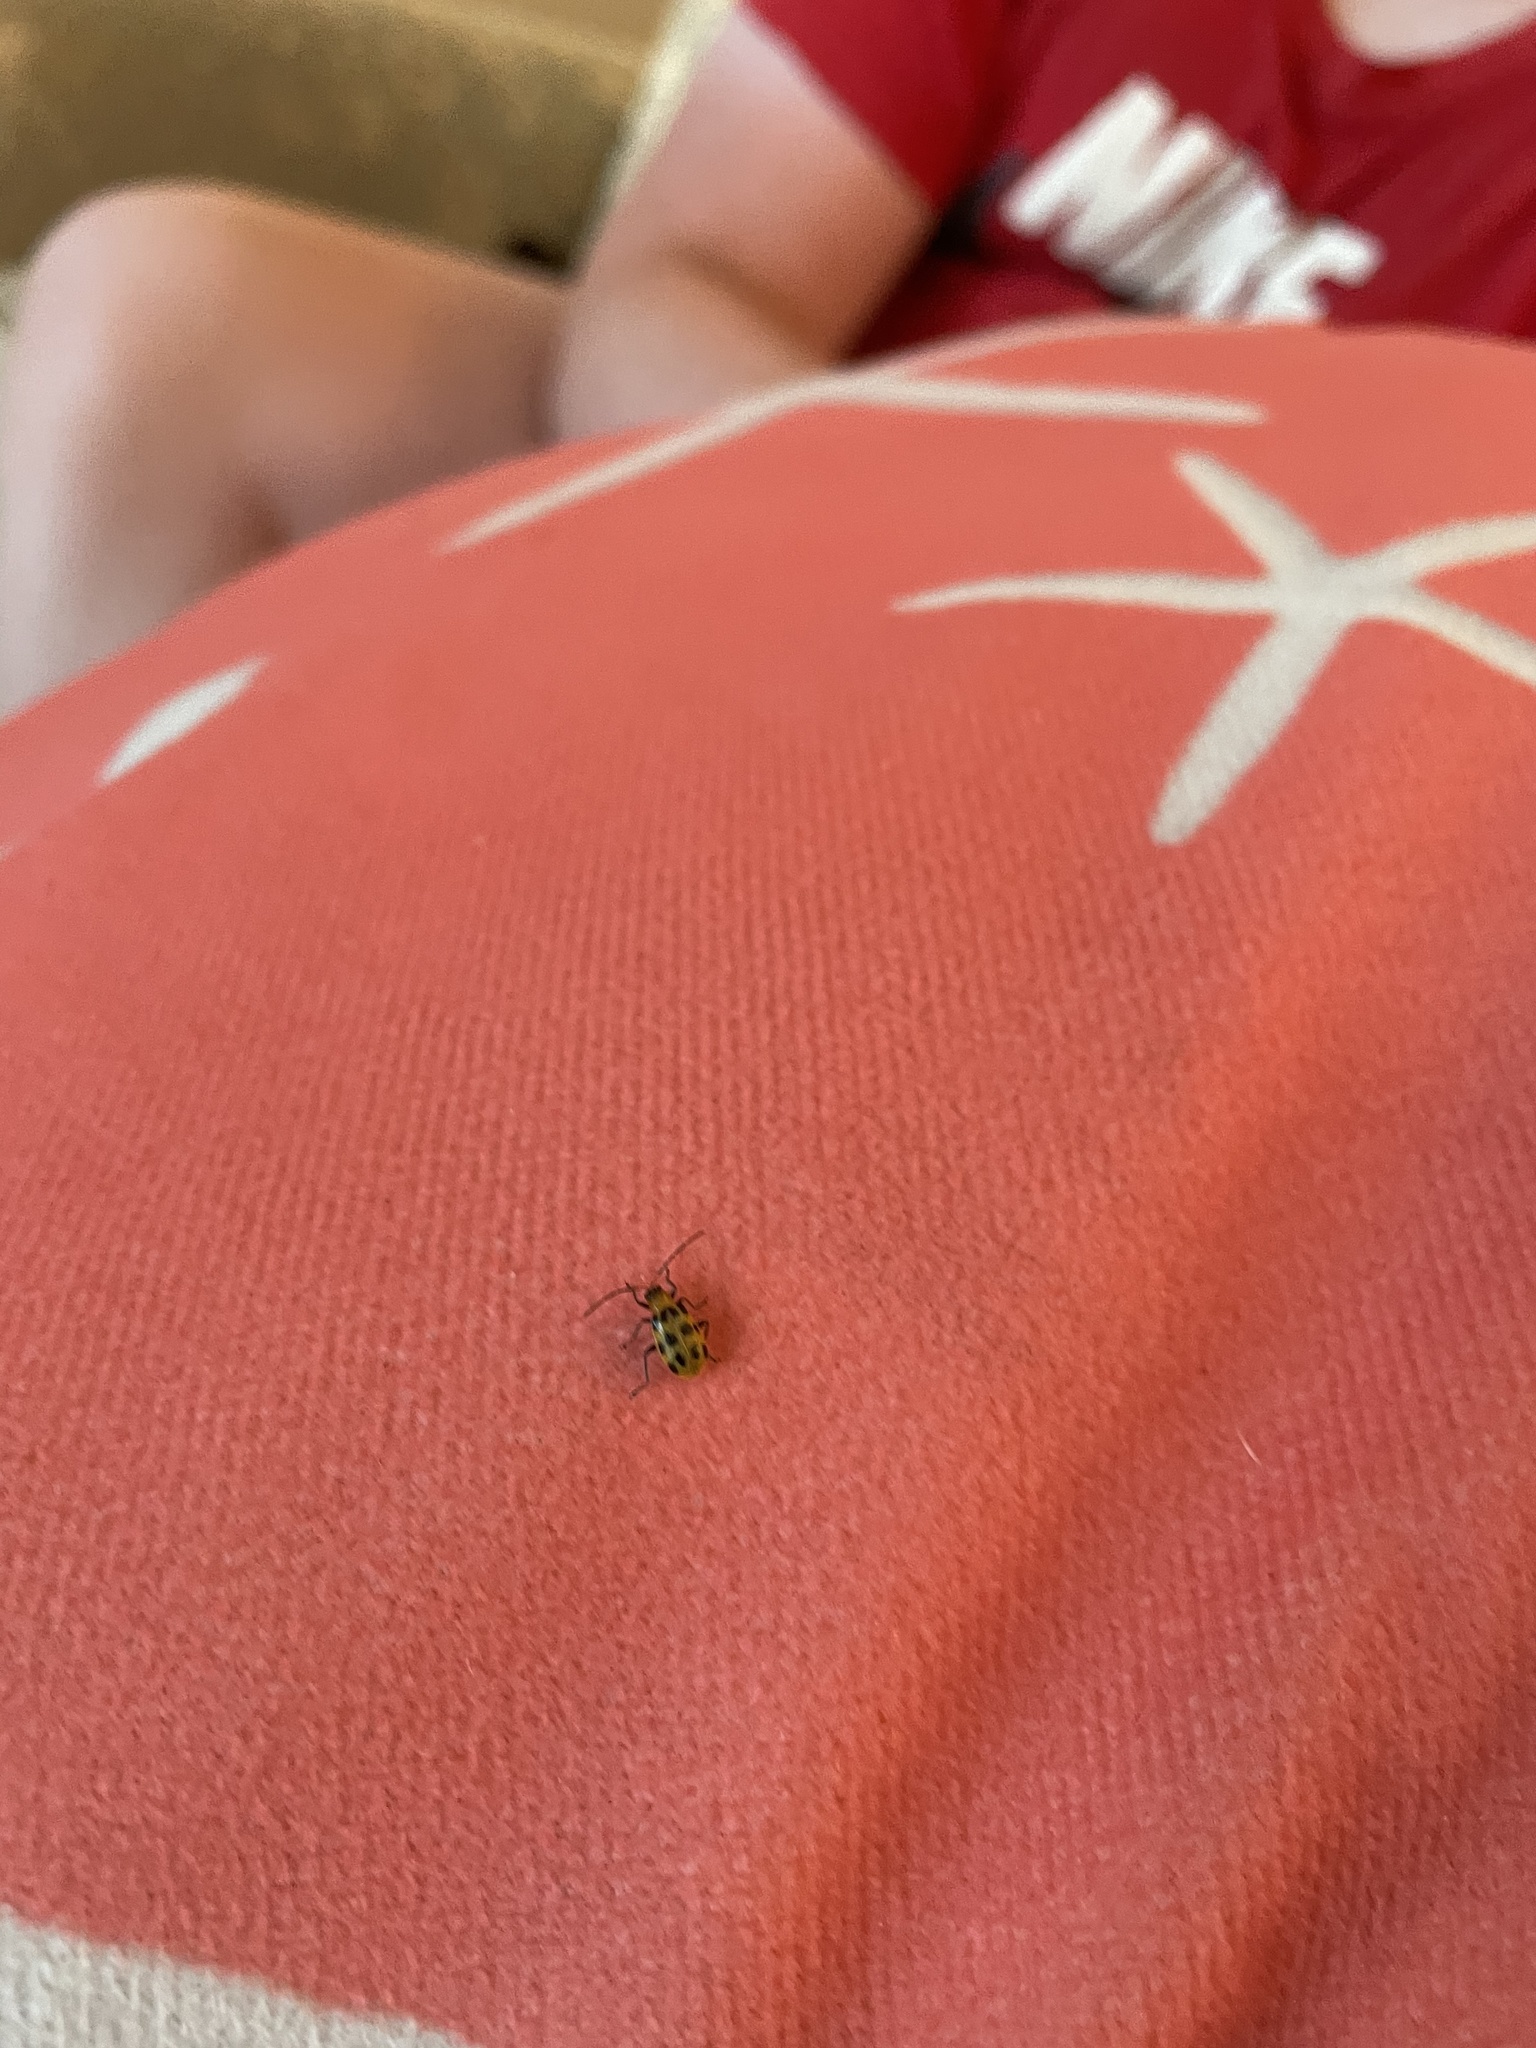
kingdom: Animalia
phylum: Arthropoda
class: Insecta
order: Coleoptera
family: Chrysomelidae
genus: Diabrotica
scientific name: Diabrotica undecimpunctata
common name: Spotted cucumber beetle
